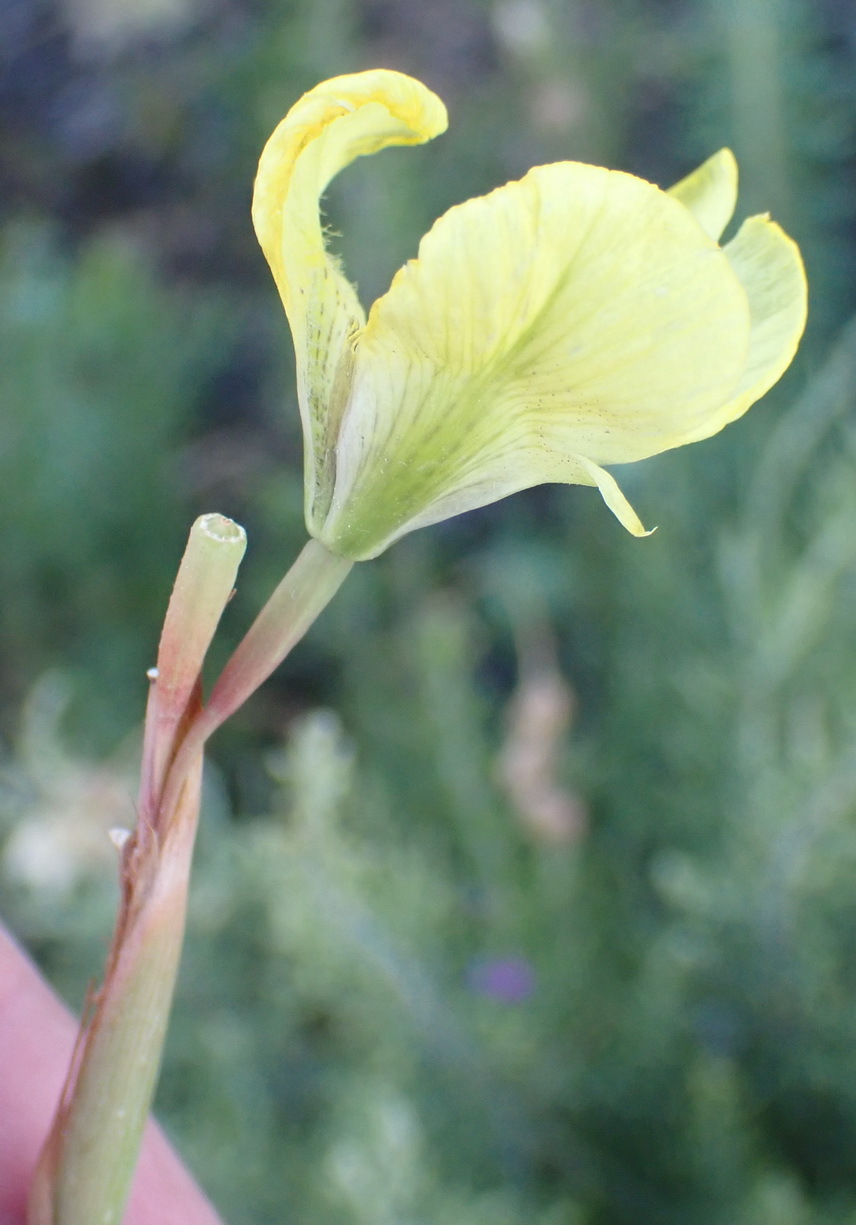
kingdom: Plantae
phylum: Tracheophyta
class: Liliopsida
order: Asparagales
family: Iridaceae
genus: Moraea
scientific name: Moraea bellendenii
